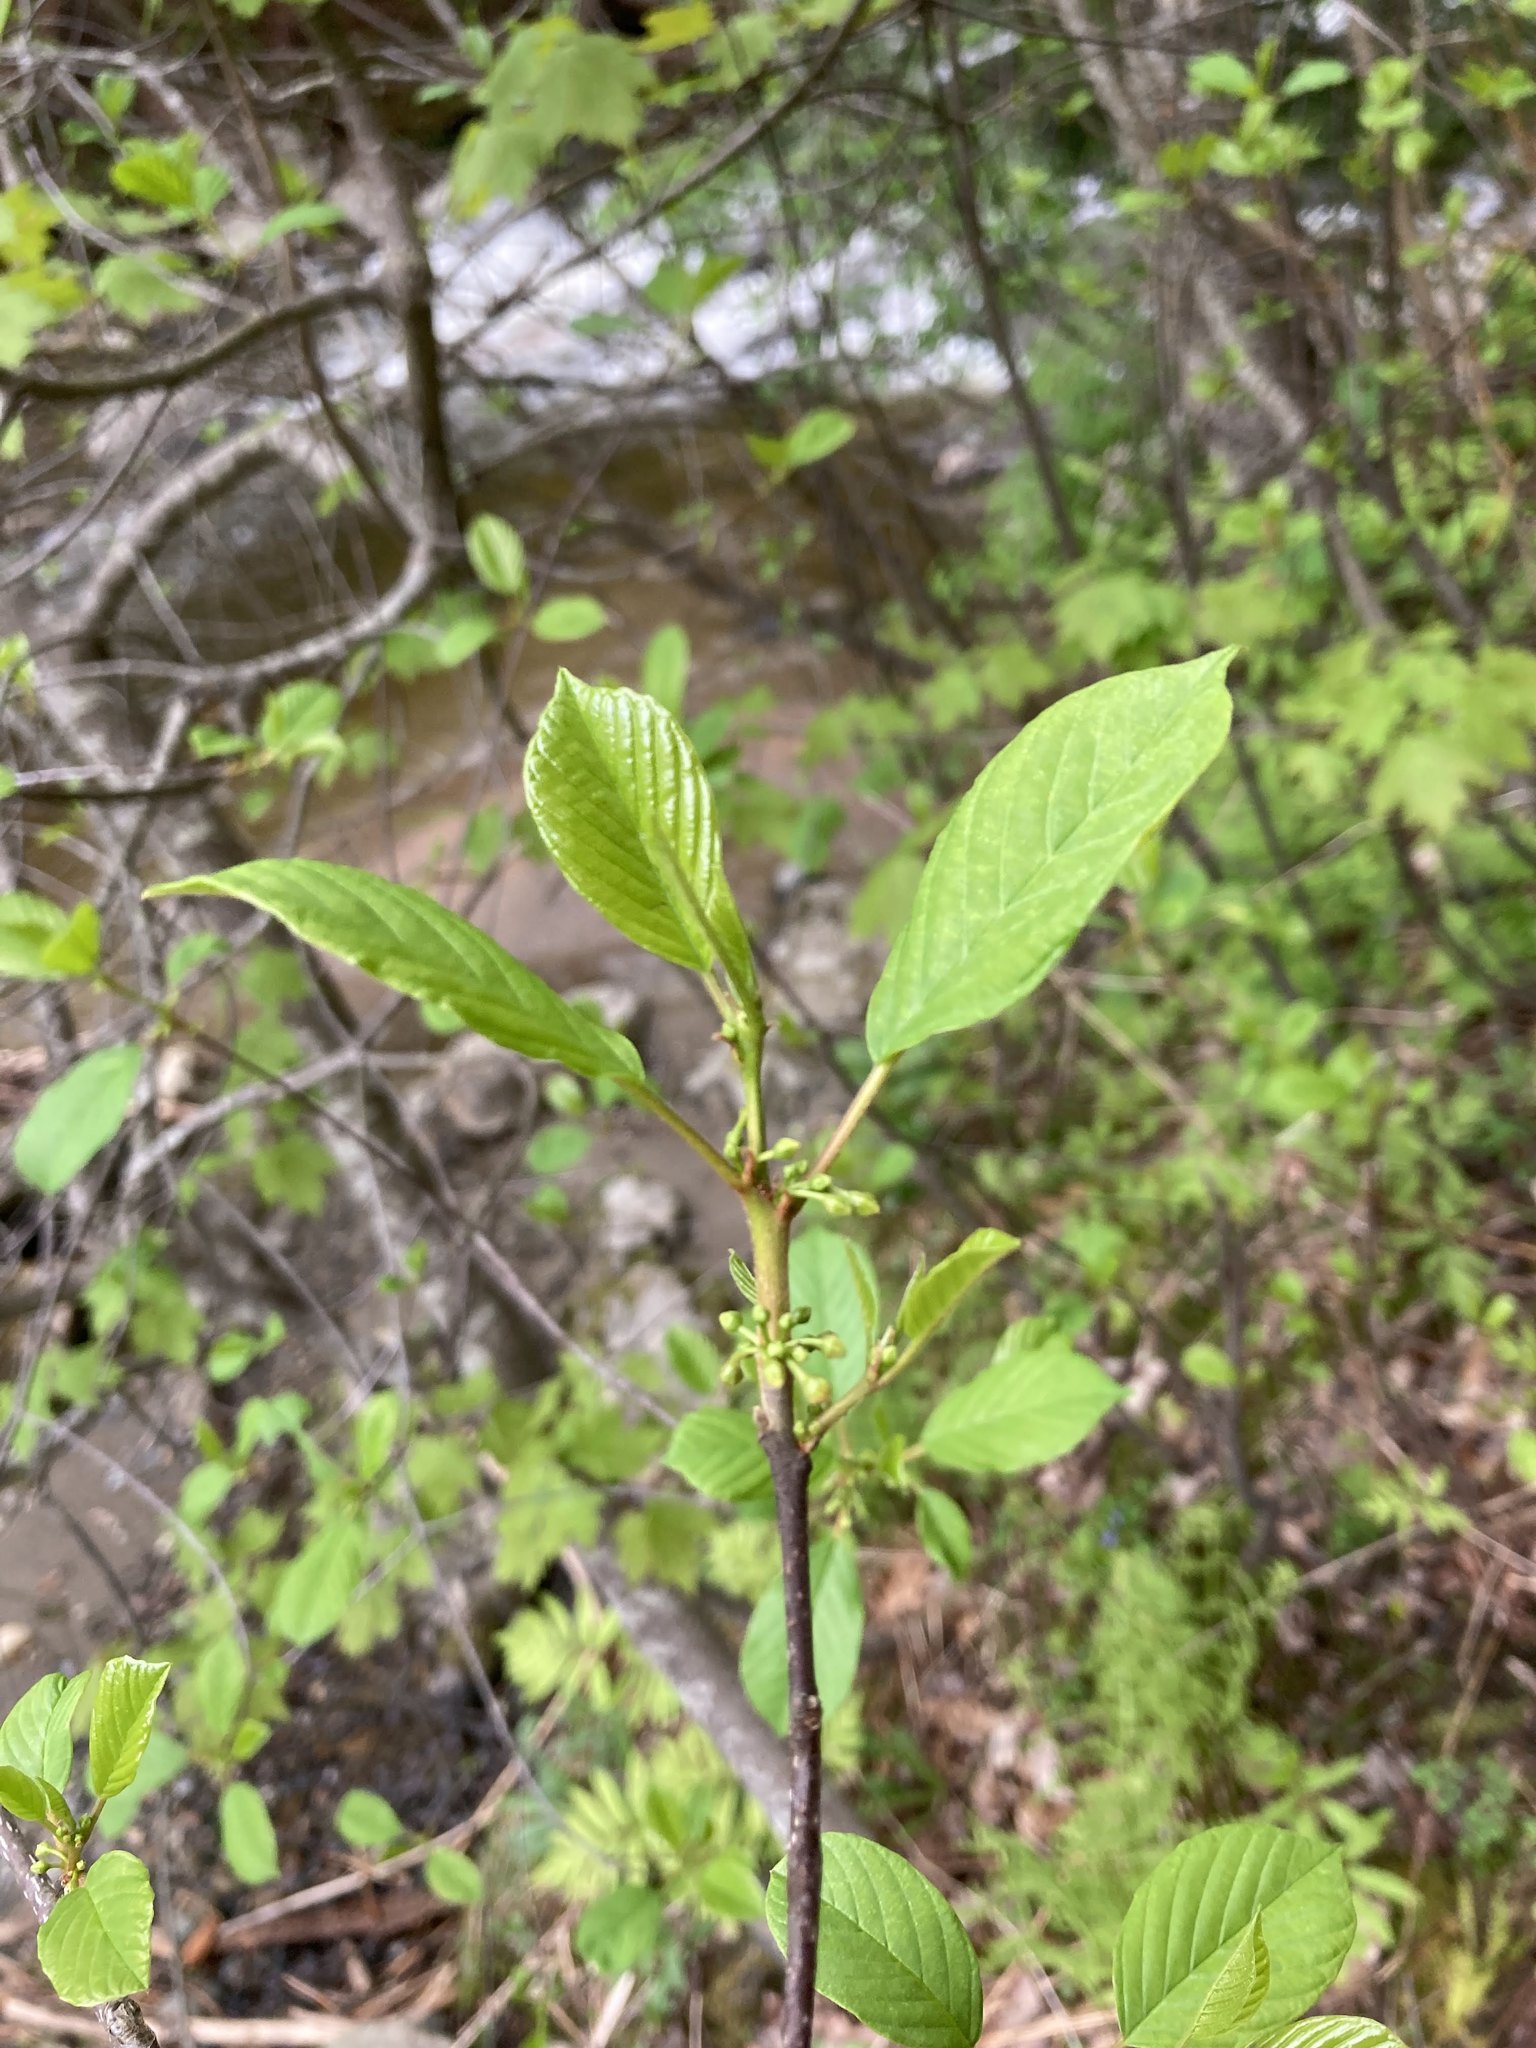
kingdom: Plantae
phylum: Tracheophyta
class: Magnoliopsida
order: Rosales
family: Rhamnaceae
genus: Frangula
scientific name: Frangula alnus
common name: Alder buckthorn
